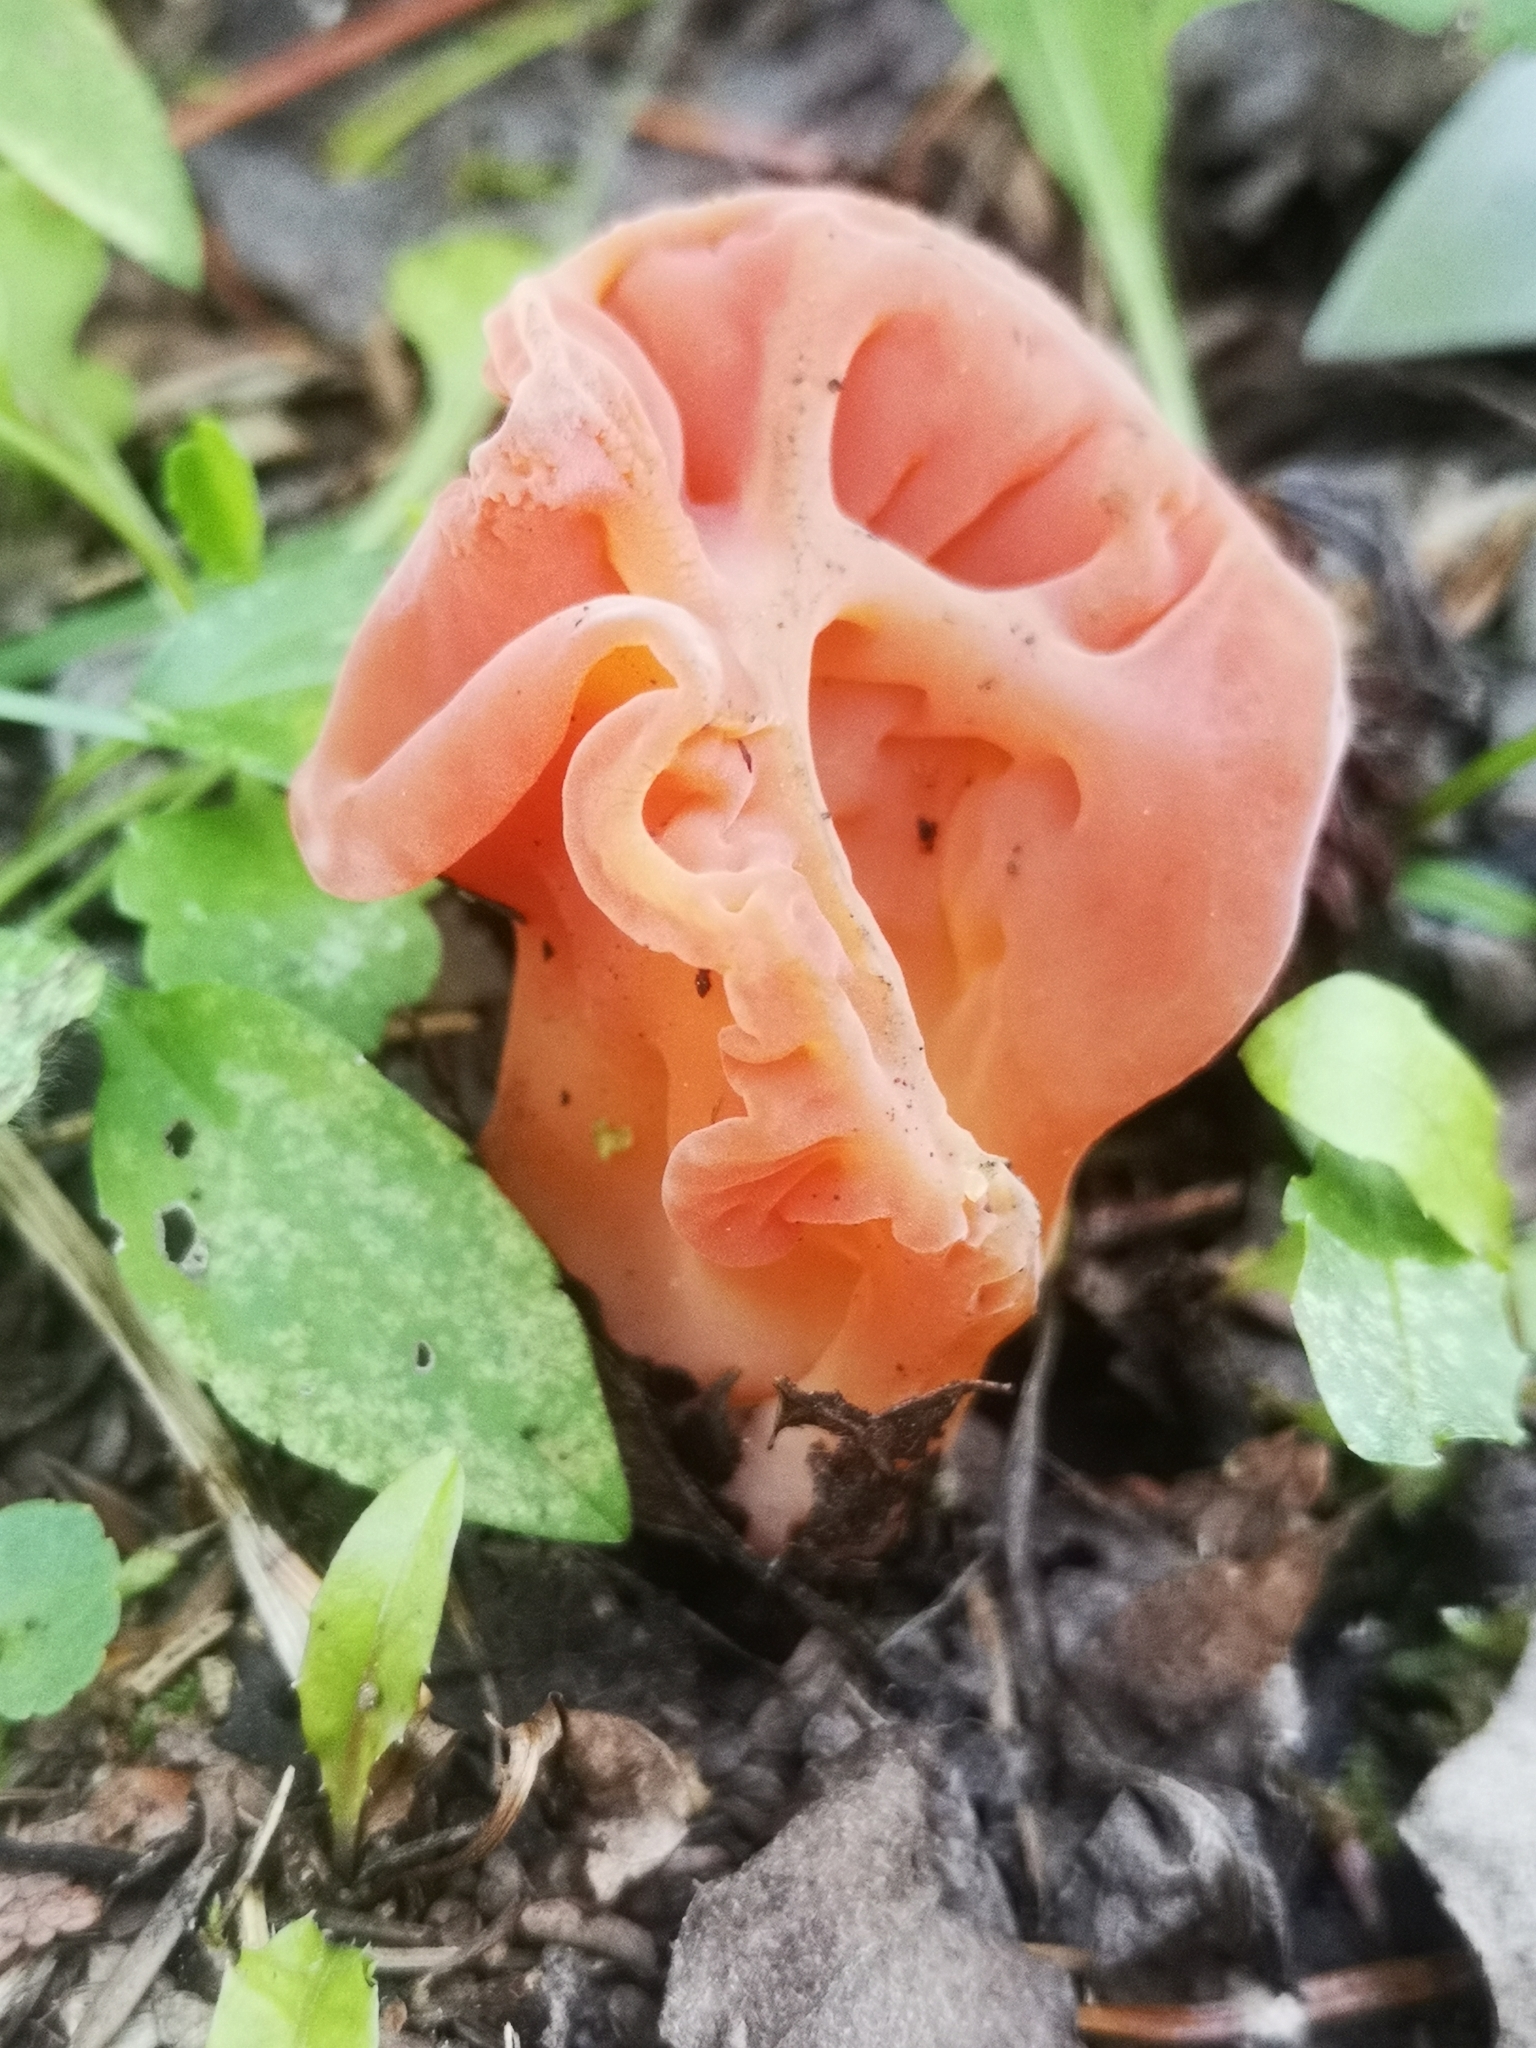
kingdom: Fungi
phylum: Basidiomycota
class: Agaricomycetes
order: Auriculariales
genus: Guepinia
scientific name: Guepinia helvelloides
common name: Salmon salad
